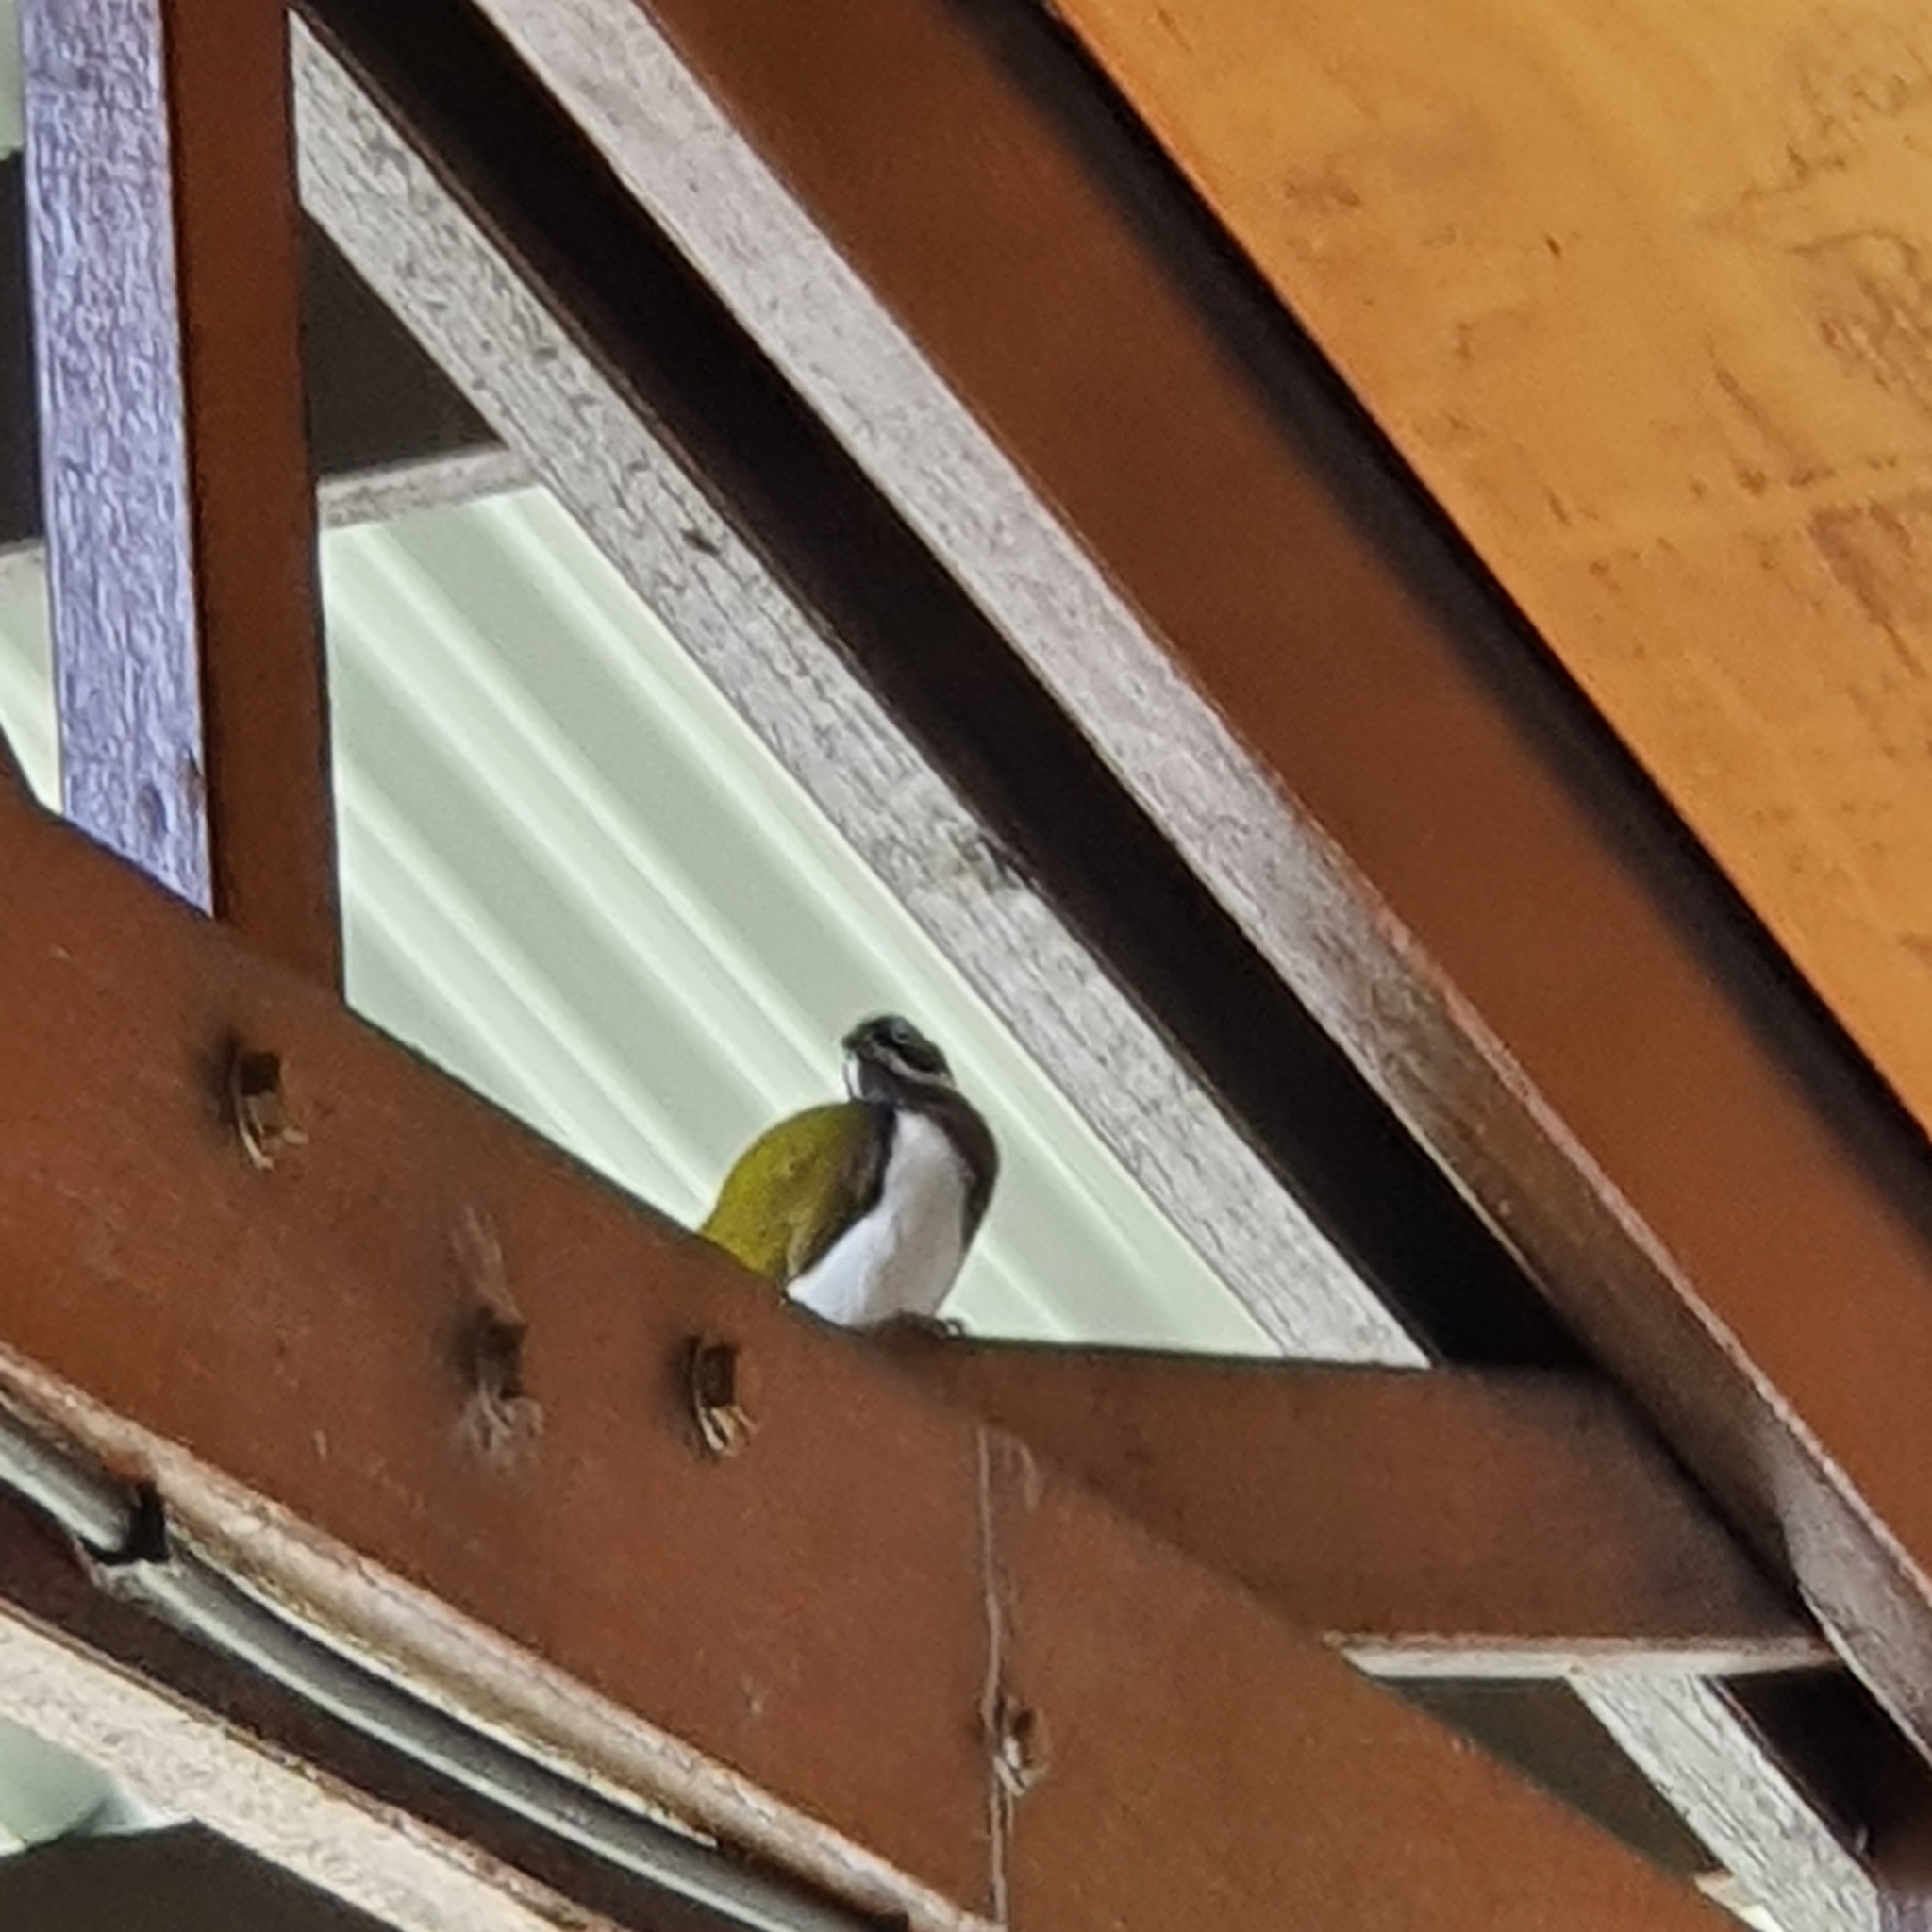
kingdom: Animalia
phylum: Chordata
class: Aves
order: Passeriformes
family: Meliphagidae
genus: Entomyzon
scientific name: Entomyzon cyanotis
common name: Blue-faced honeyeater
